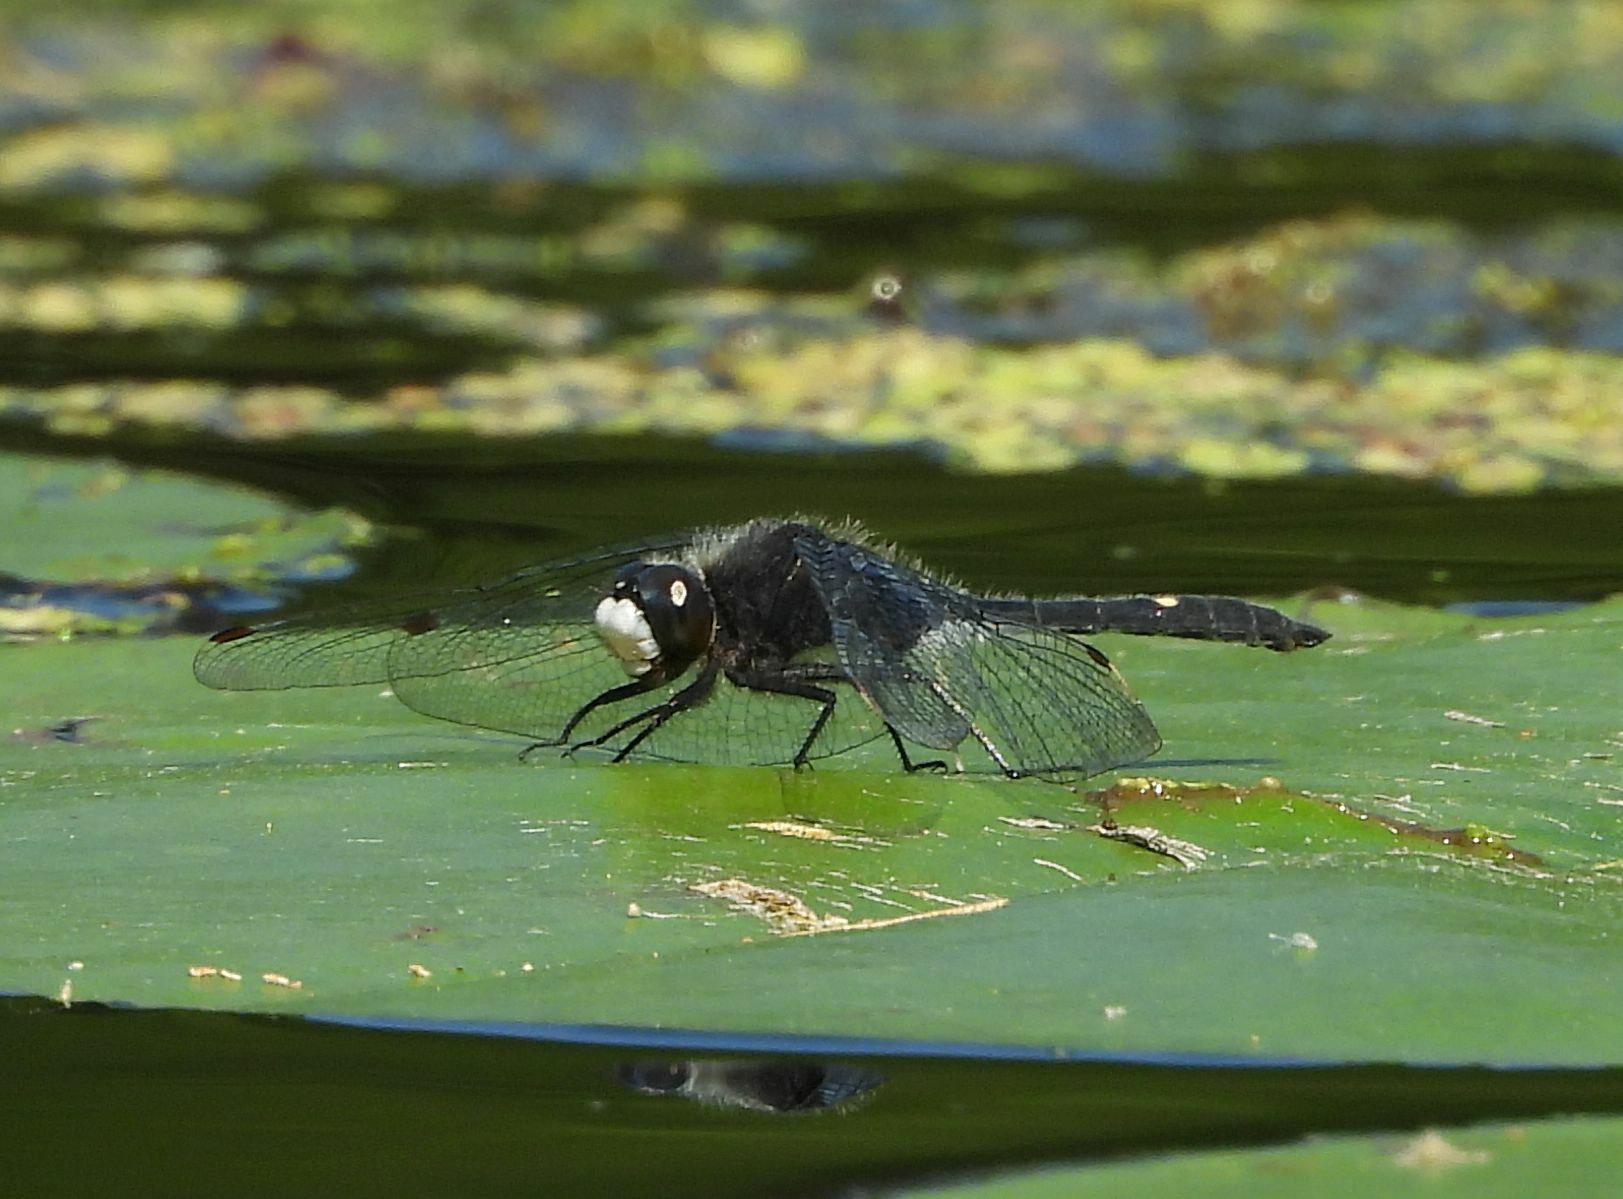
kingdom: Animalia
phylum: Arthropoda
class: Insecta
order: Odonata
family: Libellulidae
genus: Leucorrhinia
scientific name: Leucorrhinia intacta
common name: Dot-tailed whiteface
